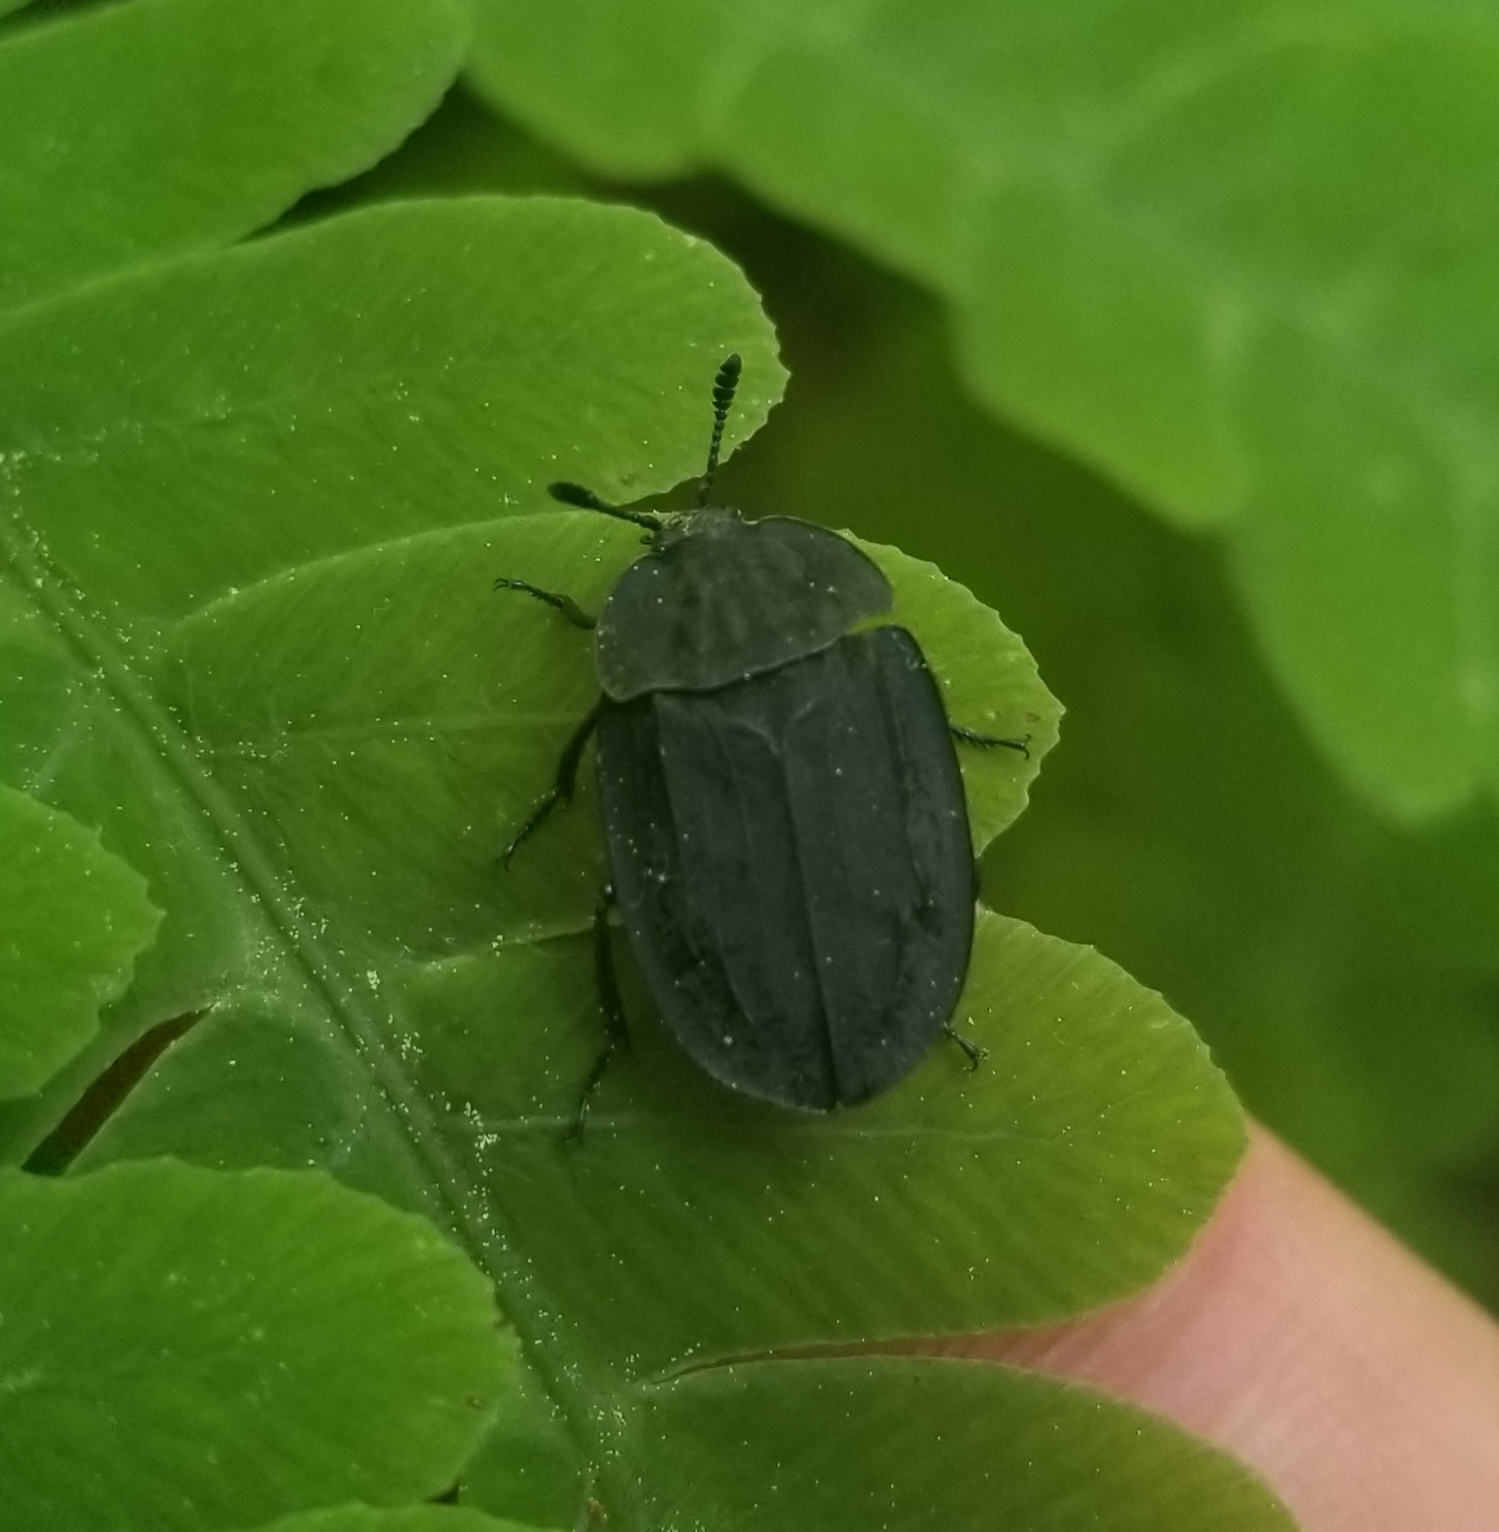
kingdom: Animalia
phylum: Arthropoda
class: Insecta
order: Coleoptera
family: Staphylinidae
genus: Oiceoptoma
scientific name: Oiceoptoma inaequale
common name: Ridged carrion beetle
